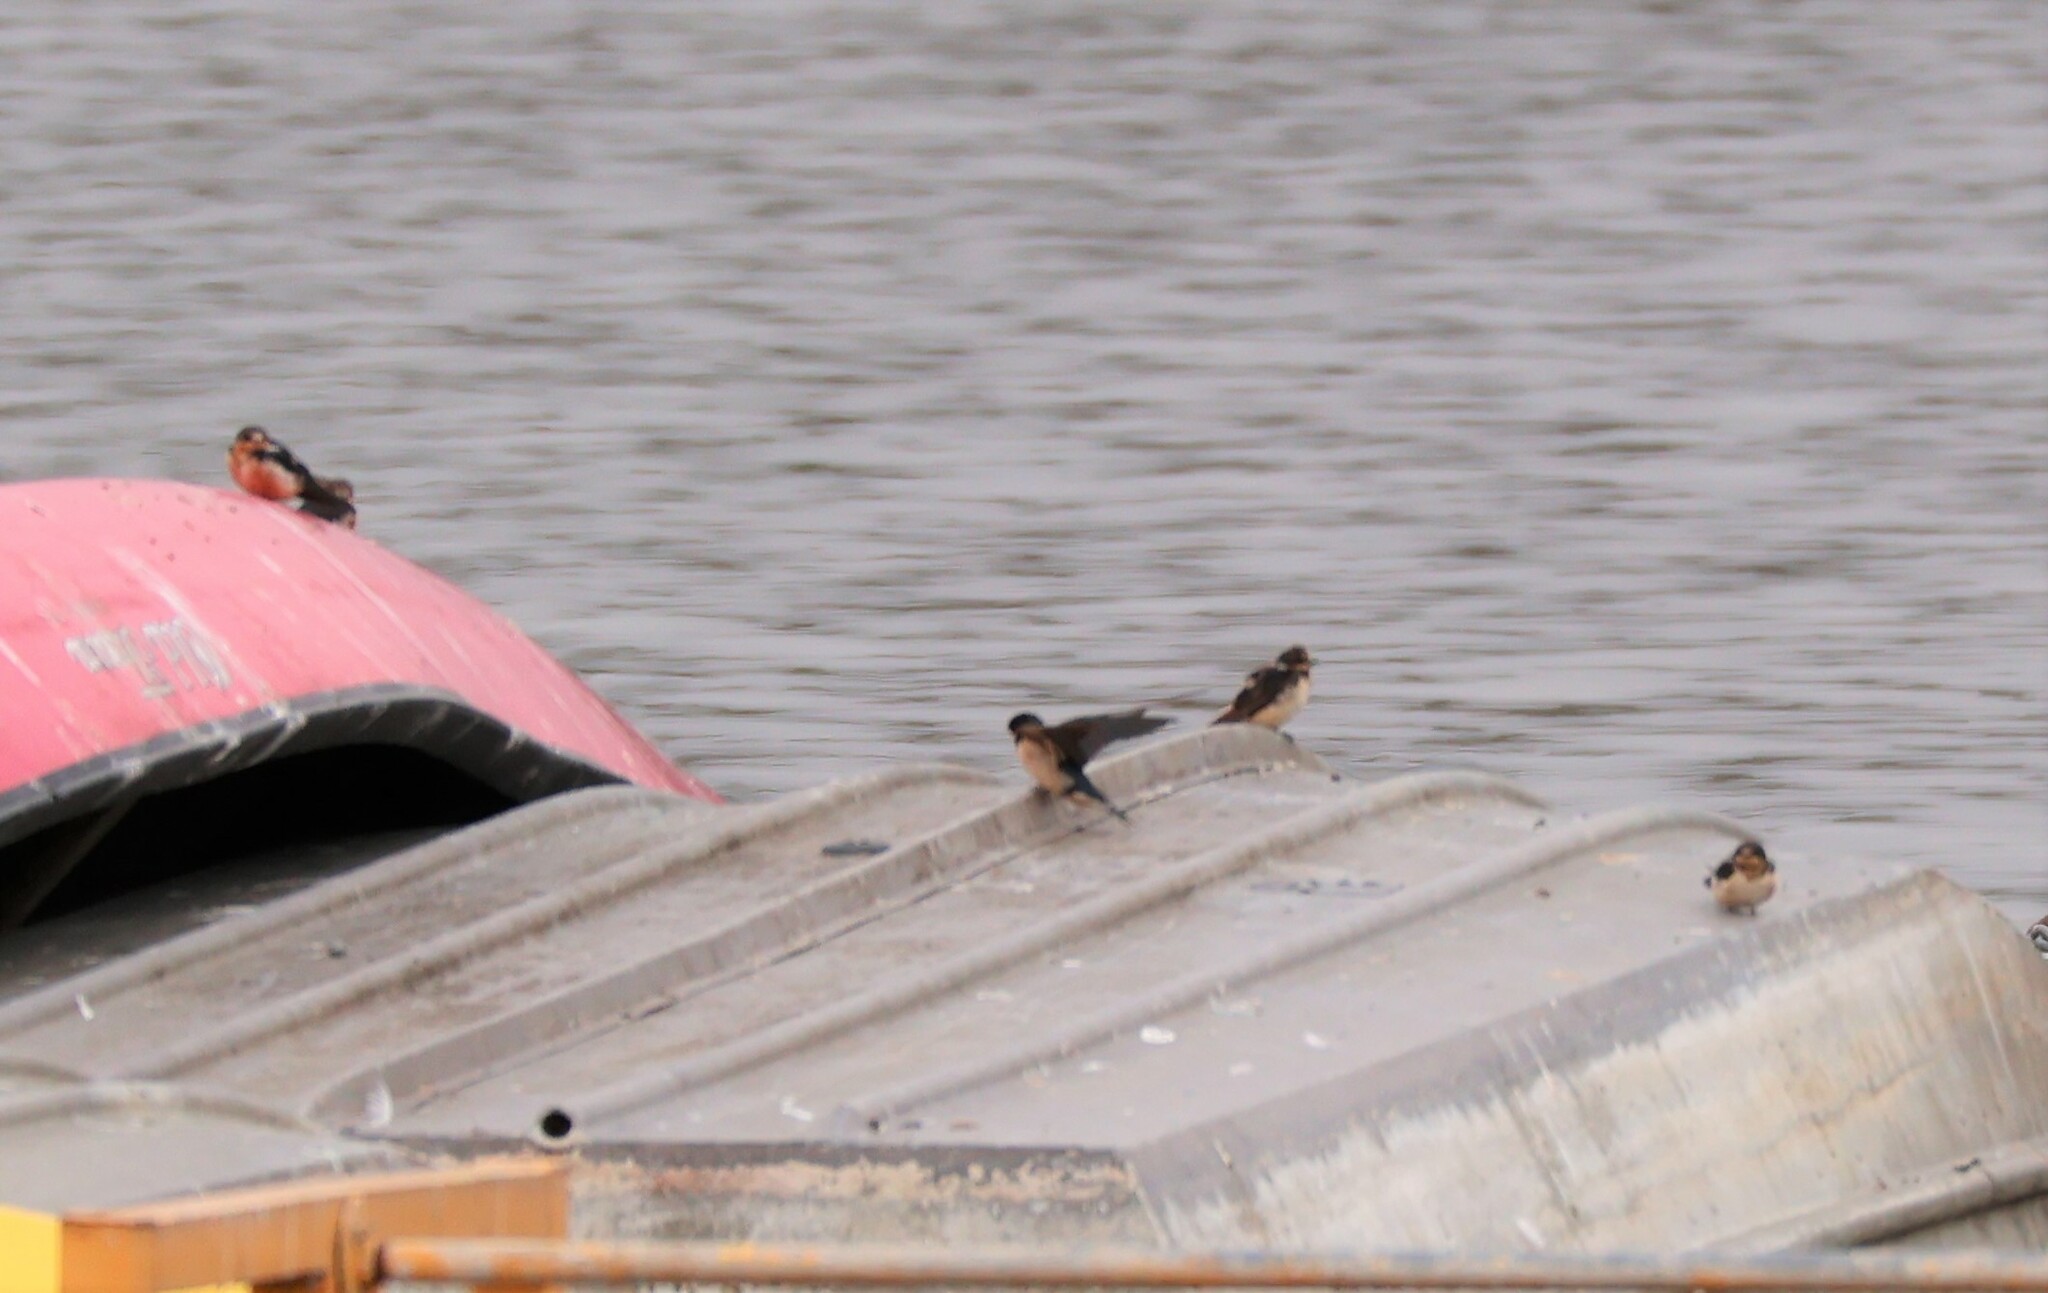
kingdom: Animalia
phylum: Chordata
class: Aves
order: Passeriformes
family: Hirundinidae
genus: Hirundo
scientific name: Hirundo rustica
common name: Barn swallow
